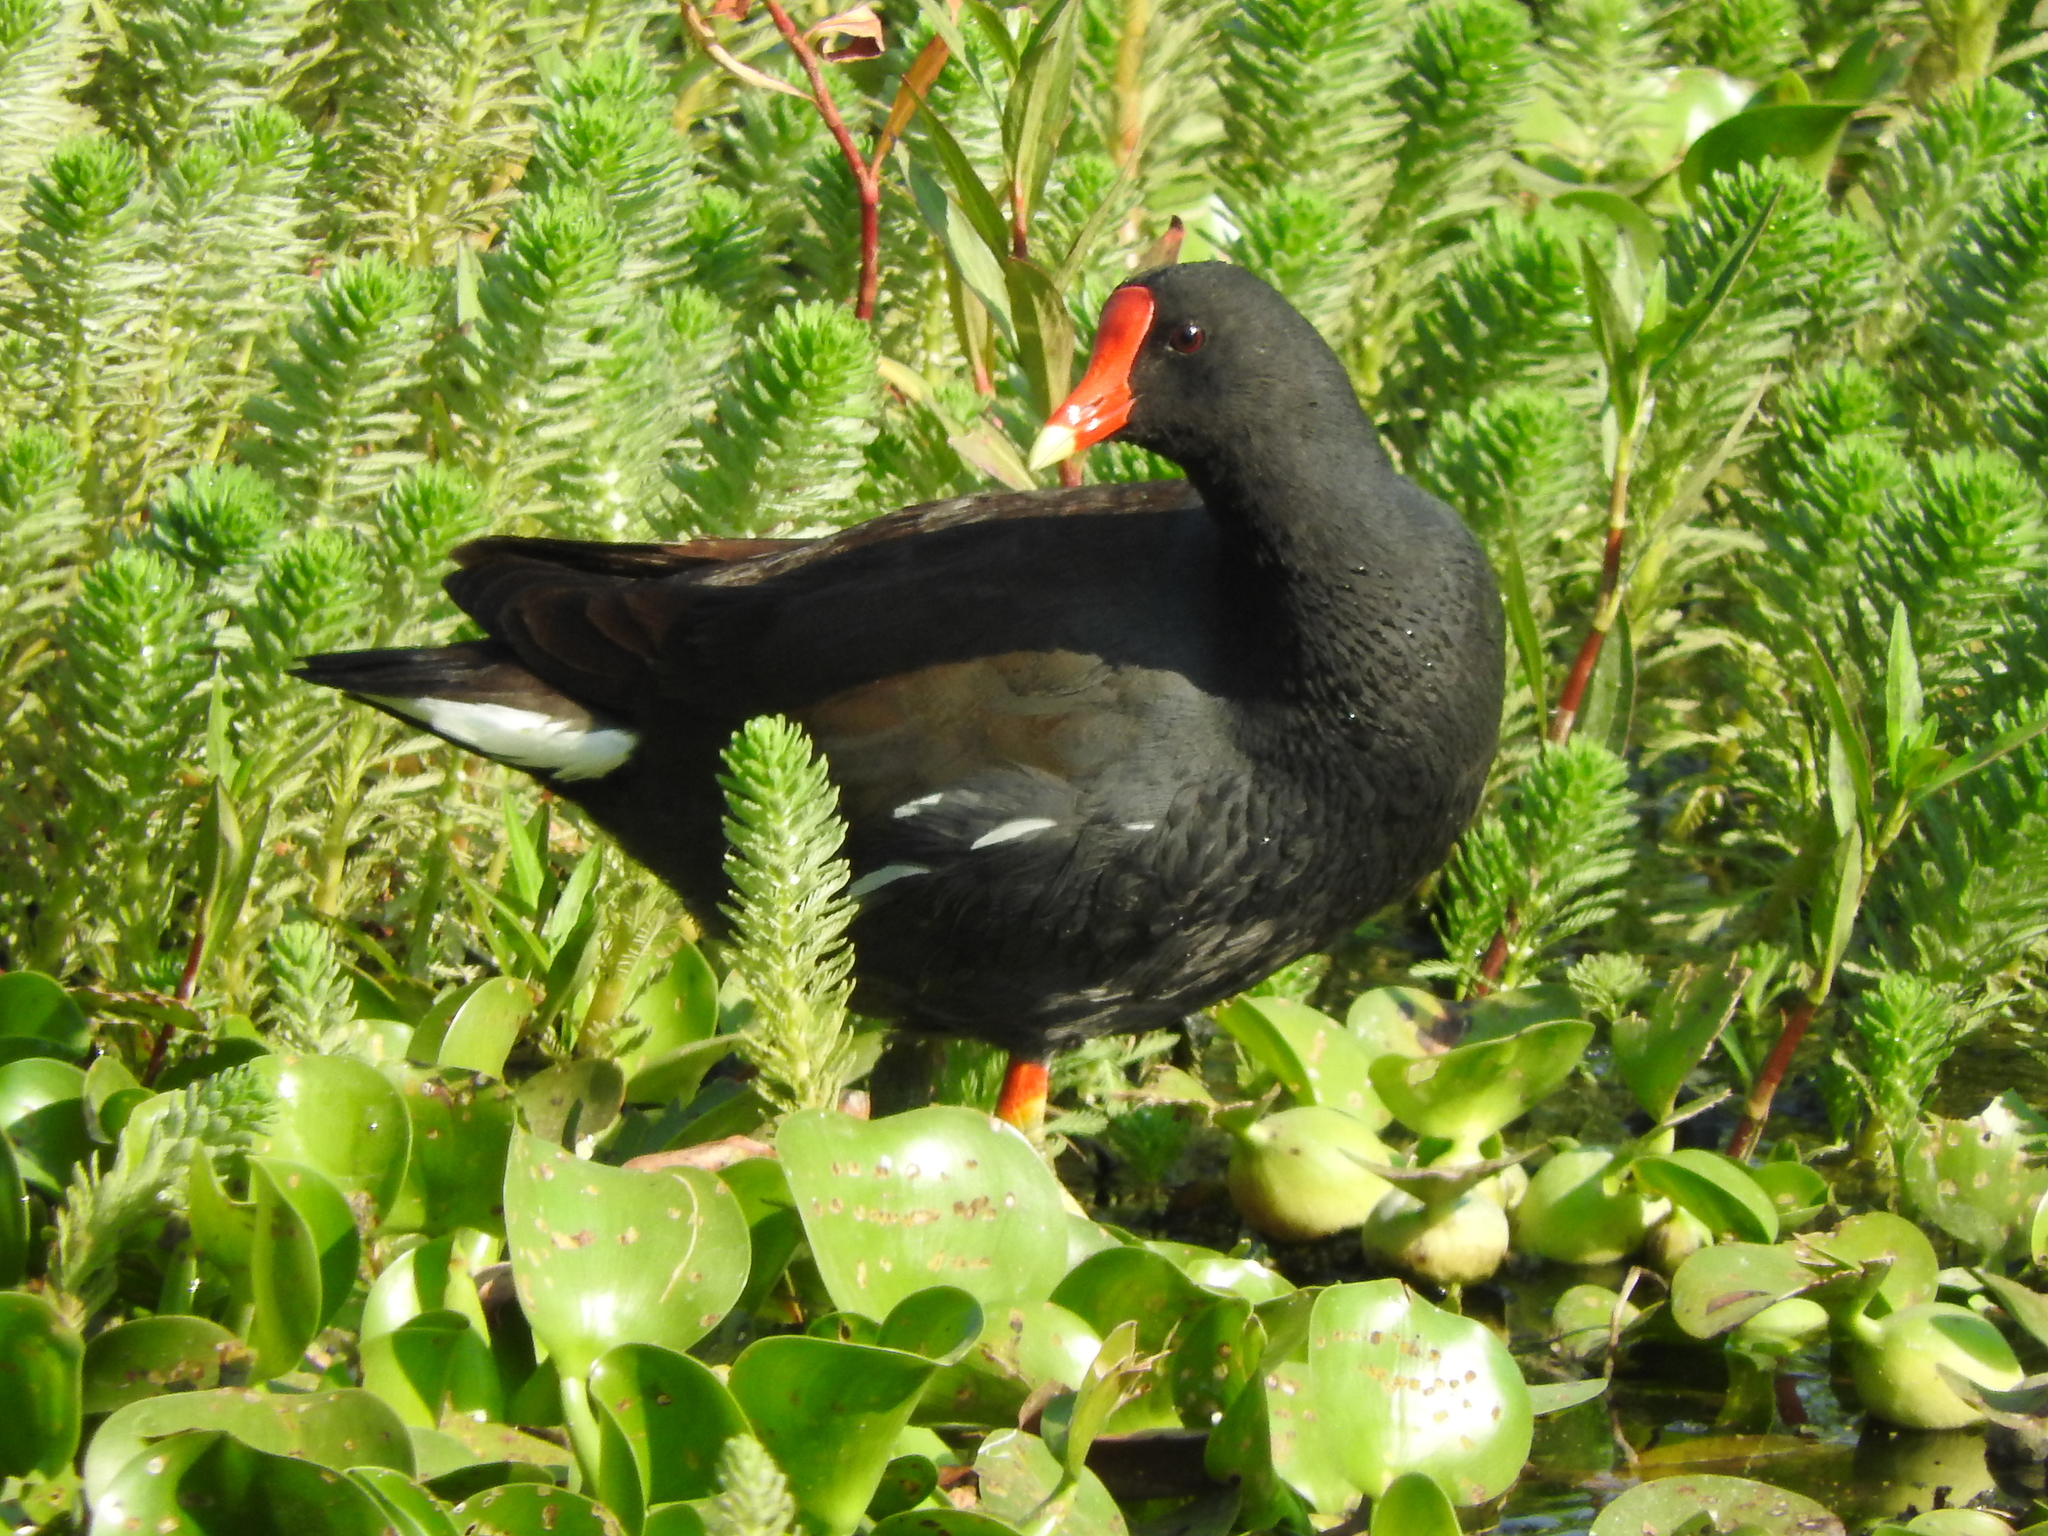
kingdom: Animalia
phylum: Chordata
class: Aves
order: Gruiformes
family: Rallidae
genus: Gallinula
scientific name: Gallinula chloropus
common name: Common moorhen
